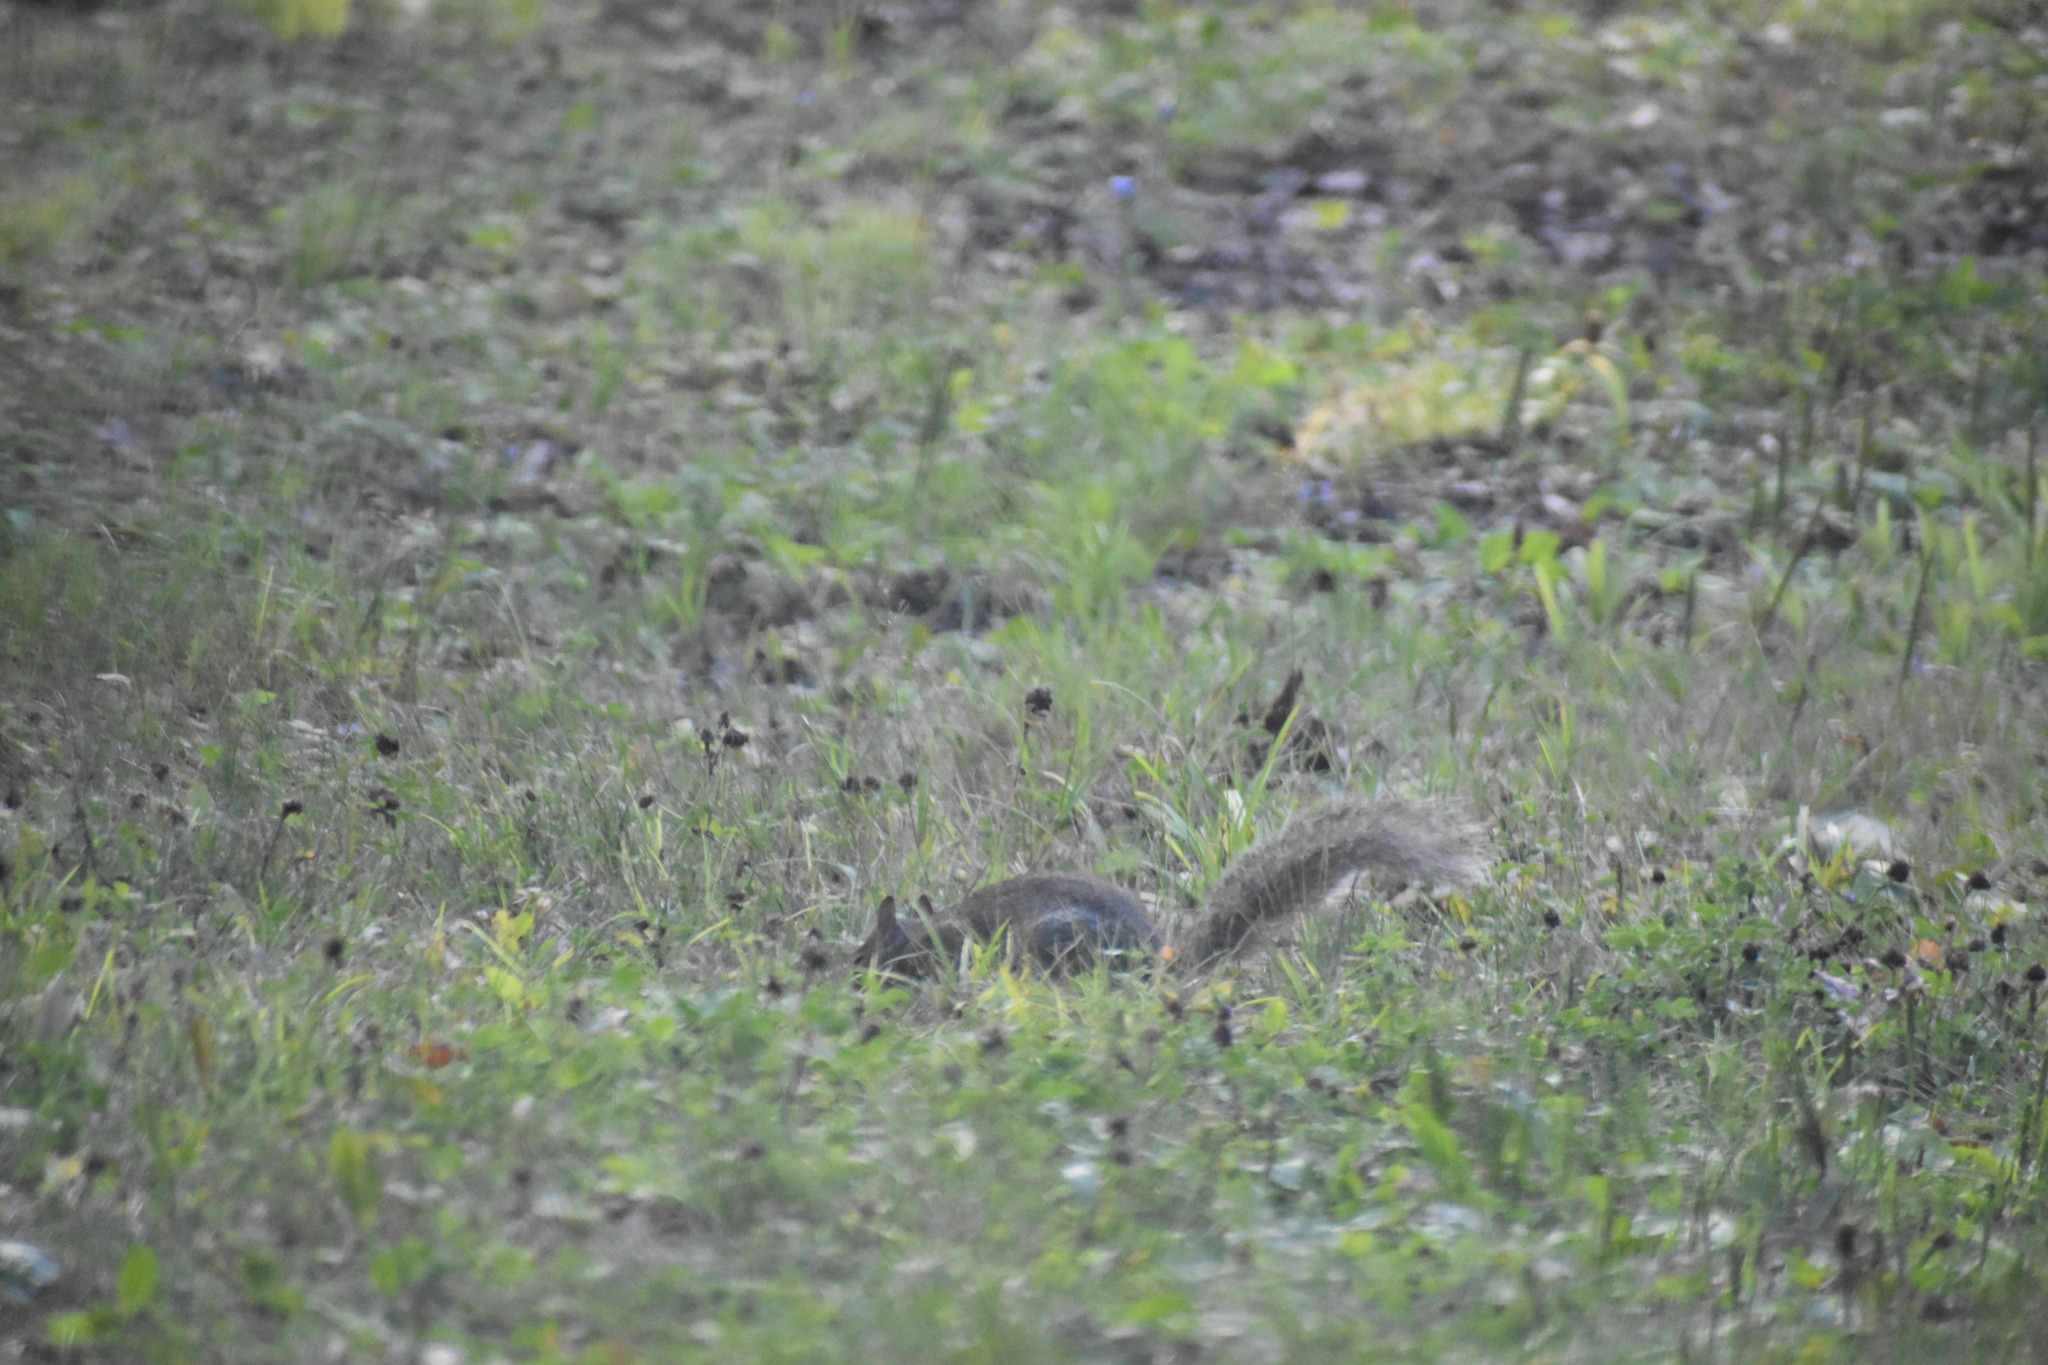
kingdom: Animalia
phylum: Chordata
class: Mammalia
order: Rodentia
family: Sciuridae
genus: Sciurus
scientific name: Sciurus carolinensis
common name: Eastern gray squirrel
